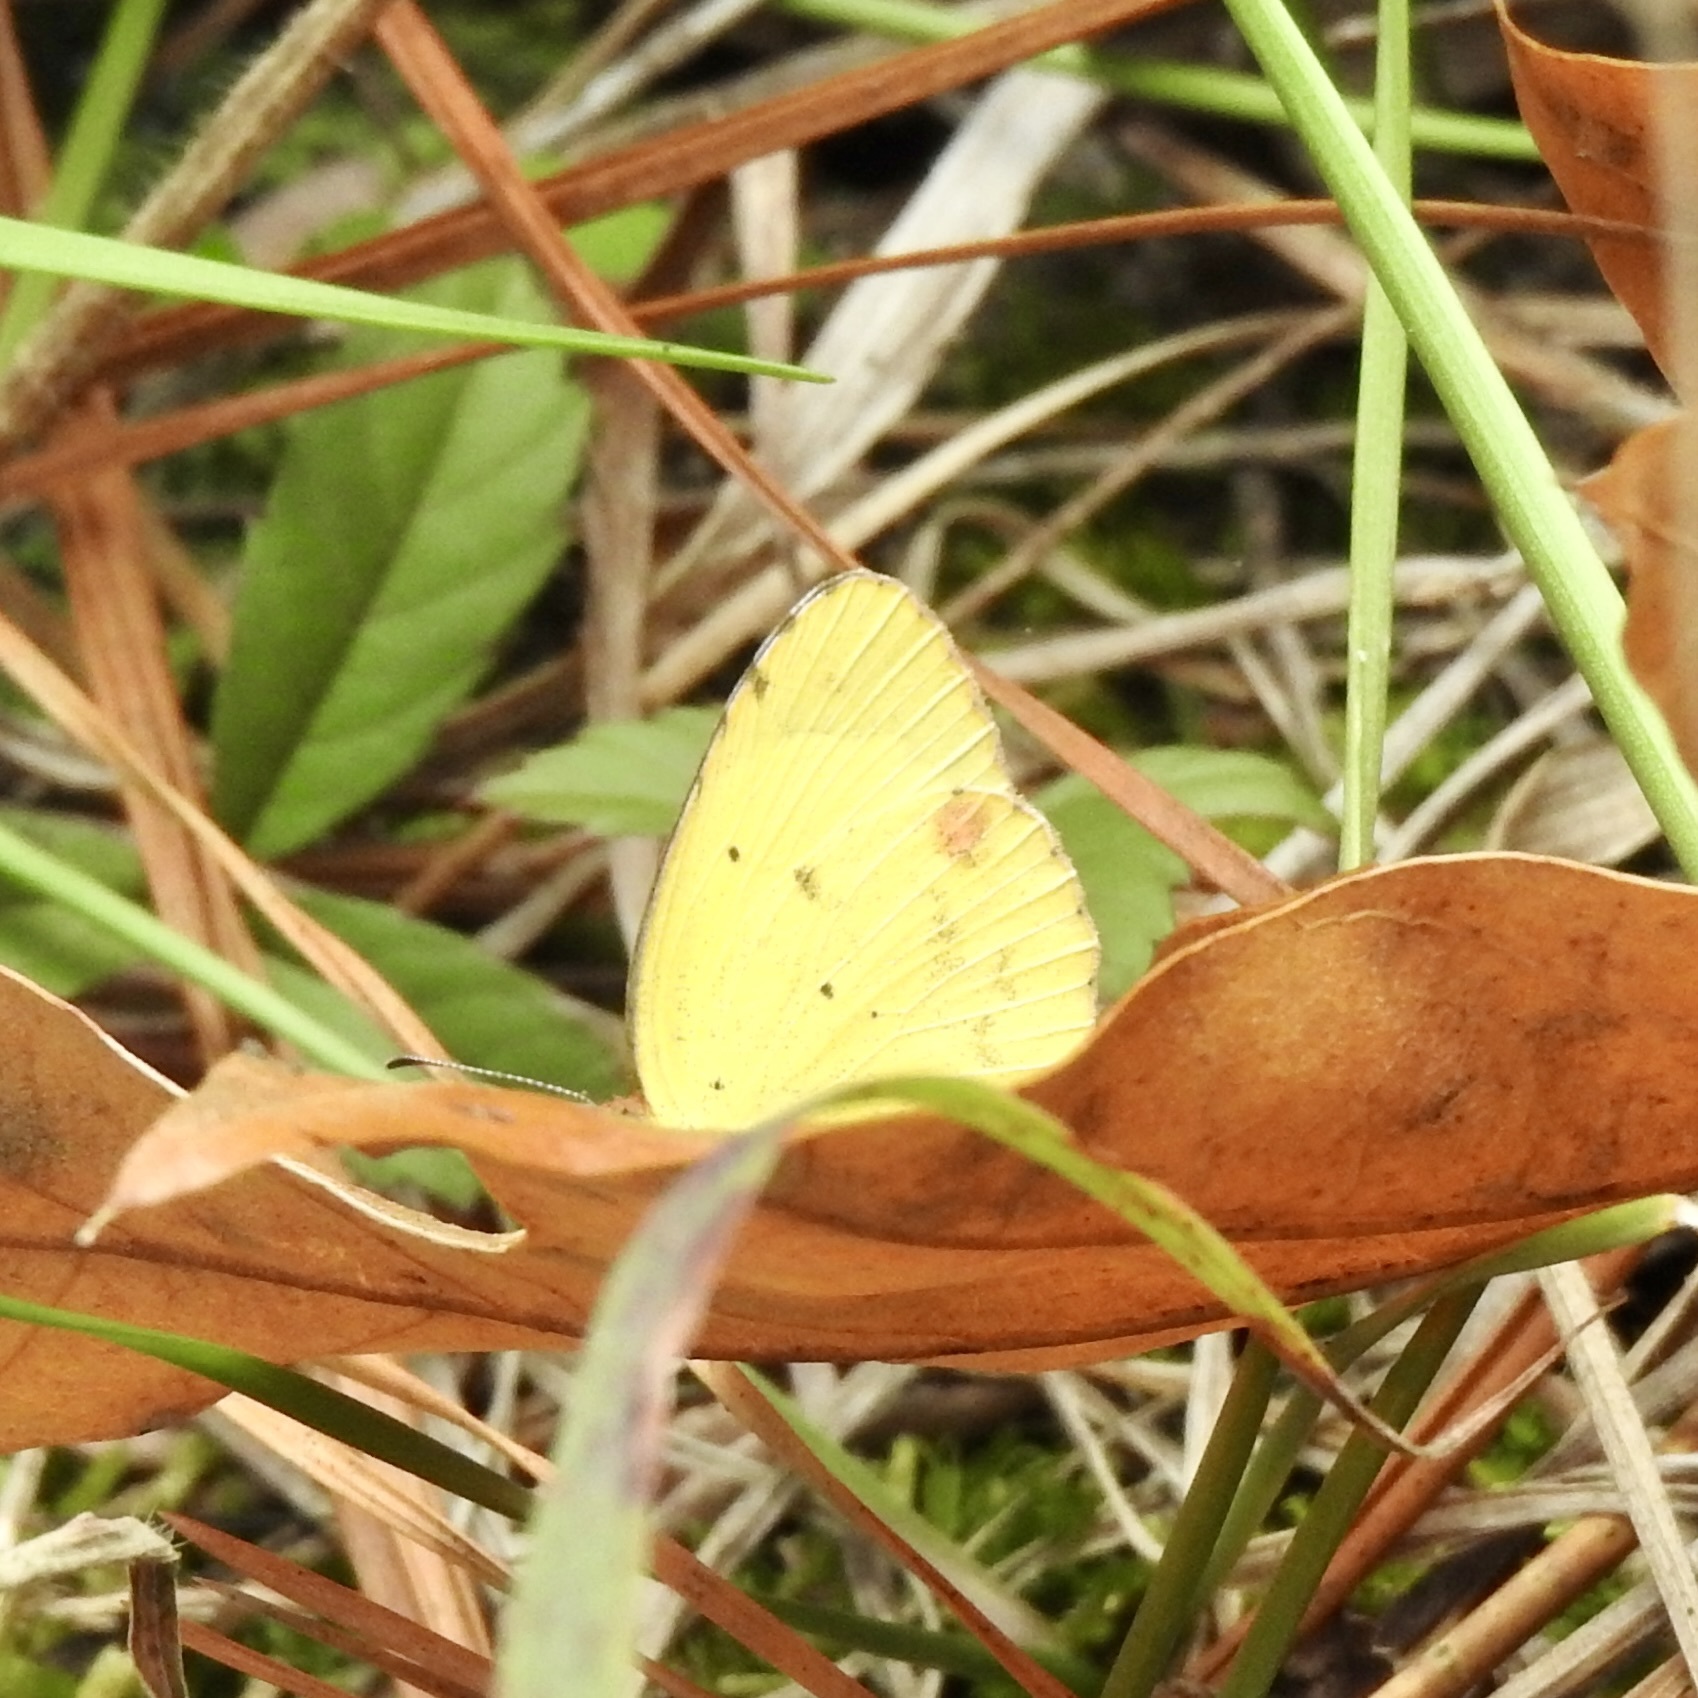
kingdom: Animalia
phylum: Arthropoda
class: Insecta
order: Lepidoptera
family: Pieridae
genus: Pyrisitia
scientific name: Pyrisitia lisa
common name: Little yellow
